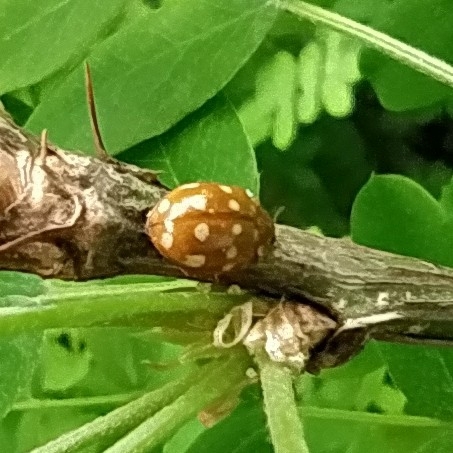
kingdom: Animalia
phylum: Arthropoda
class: Insecta
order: Coleoptera
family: Coccinellidae
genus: Calvia
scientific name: Calvia quatuordecimguttata
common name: Cream-spot ladybird
